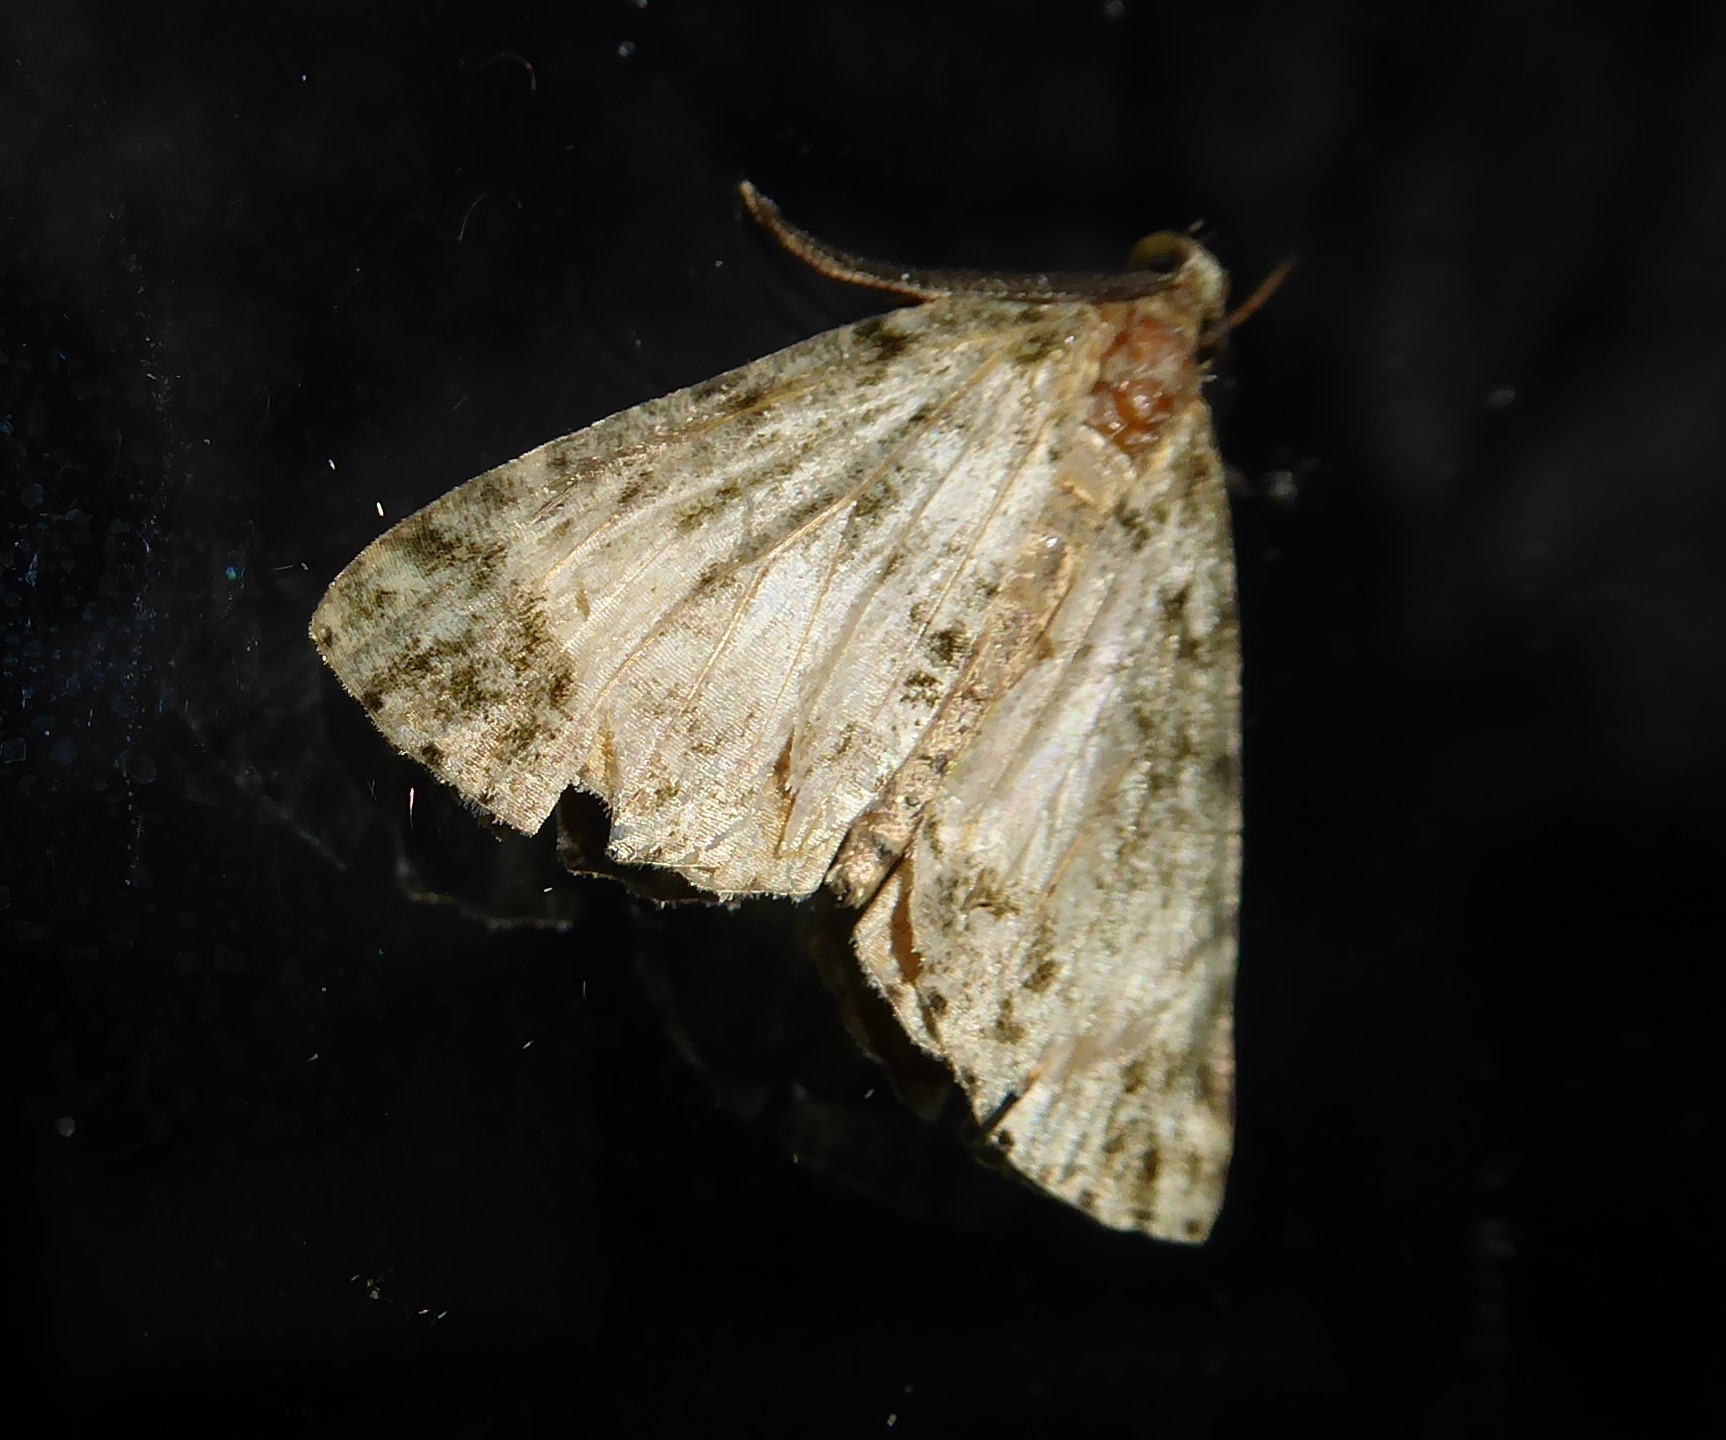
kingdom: Animalia
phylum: Arthropoda
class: Insecta
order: Lepidoptera
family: Geometridae
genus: Pseudocoremia
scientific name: Pseudocoremia indistincta
